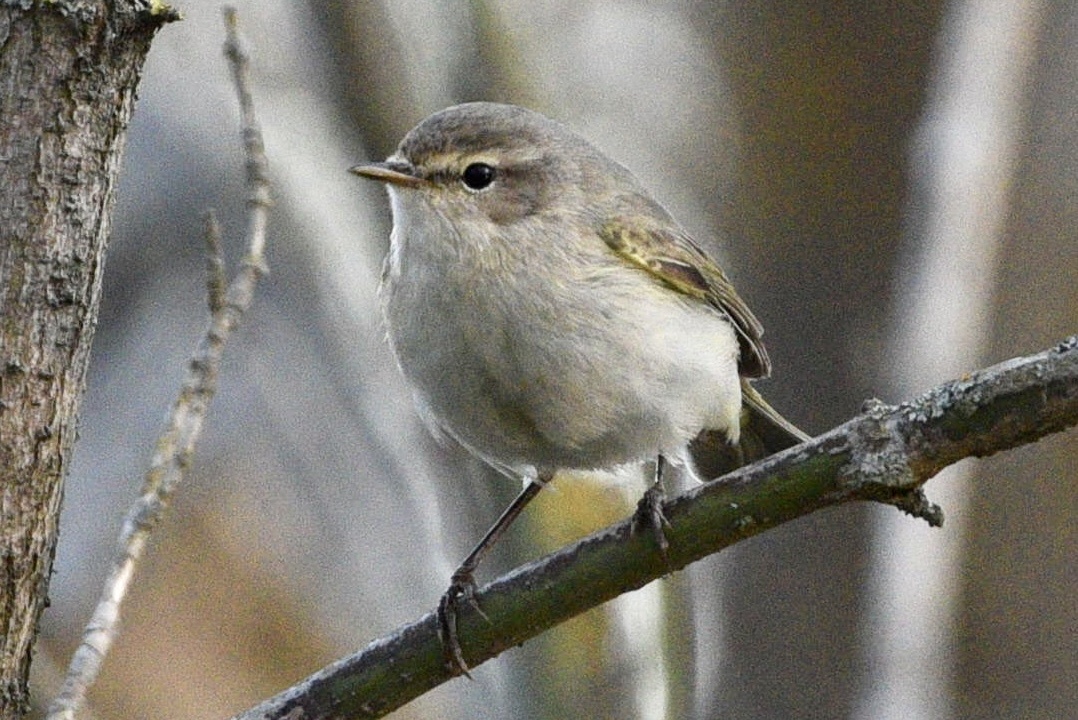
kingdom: Animalia
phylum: Chordata
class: Aves
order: Passeriformes
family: Phylloscopidae
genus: Phylloscopus
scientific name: Phylloscopus collybita
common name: Common chiffchaff
